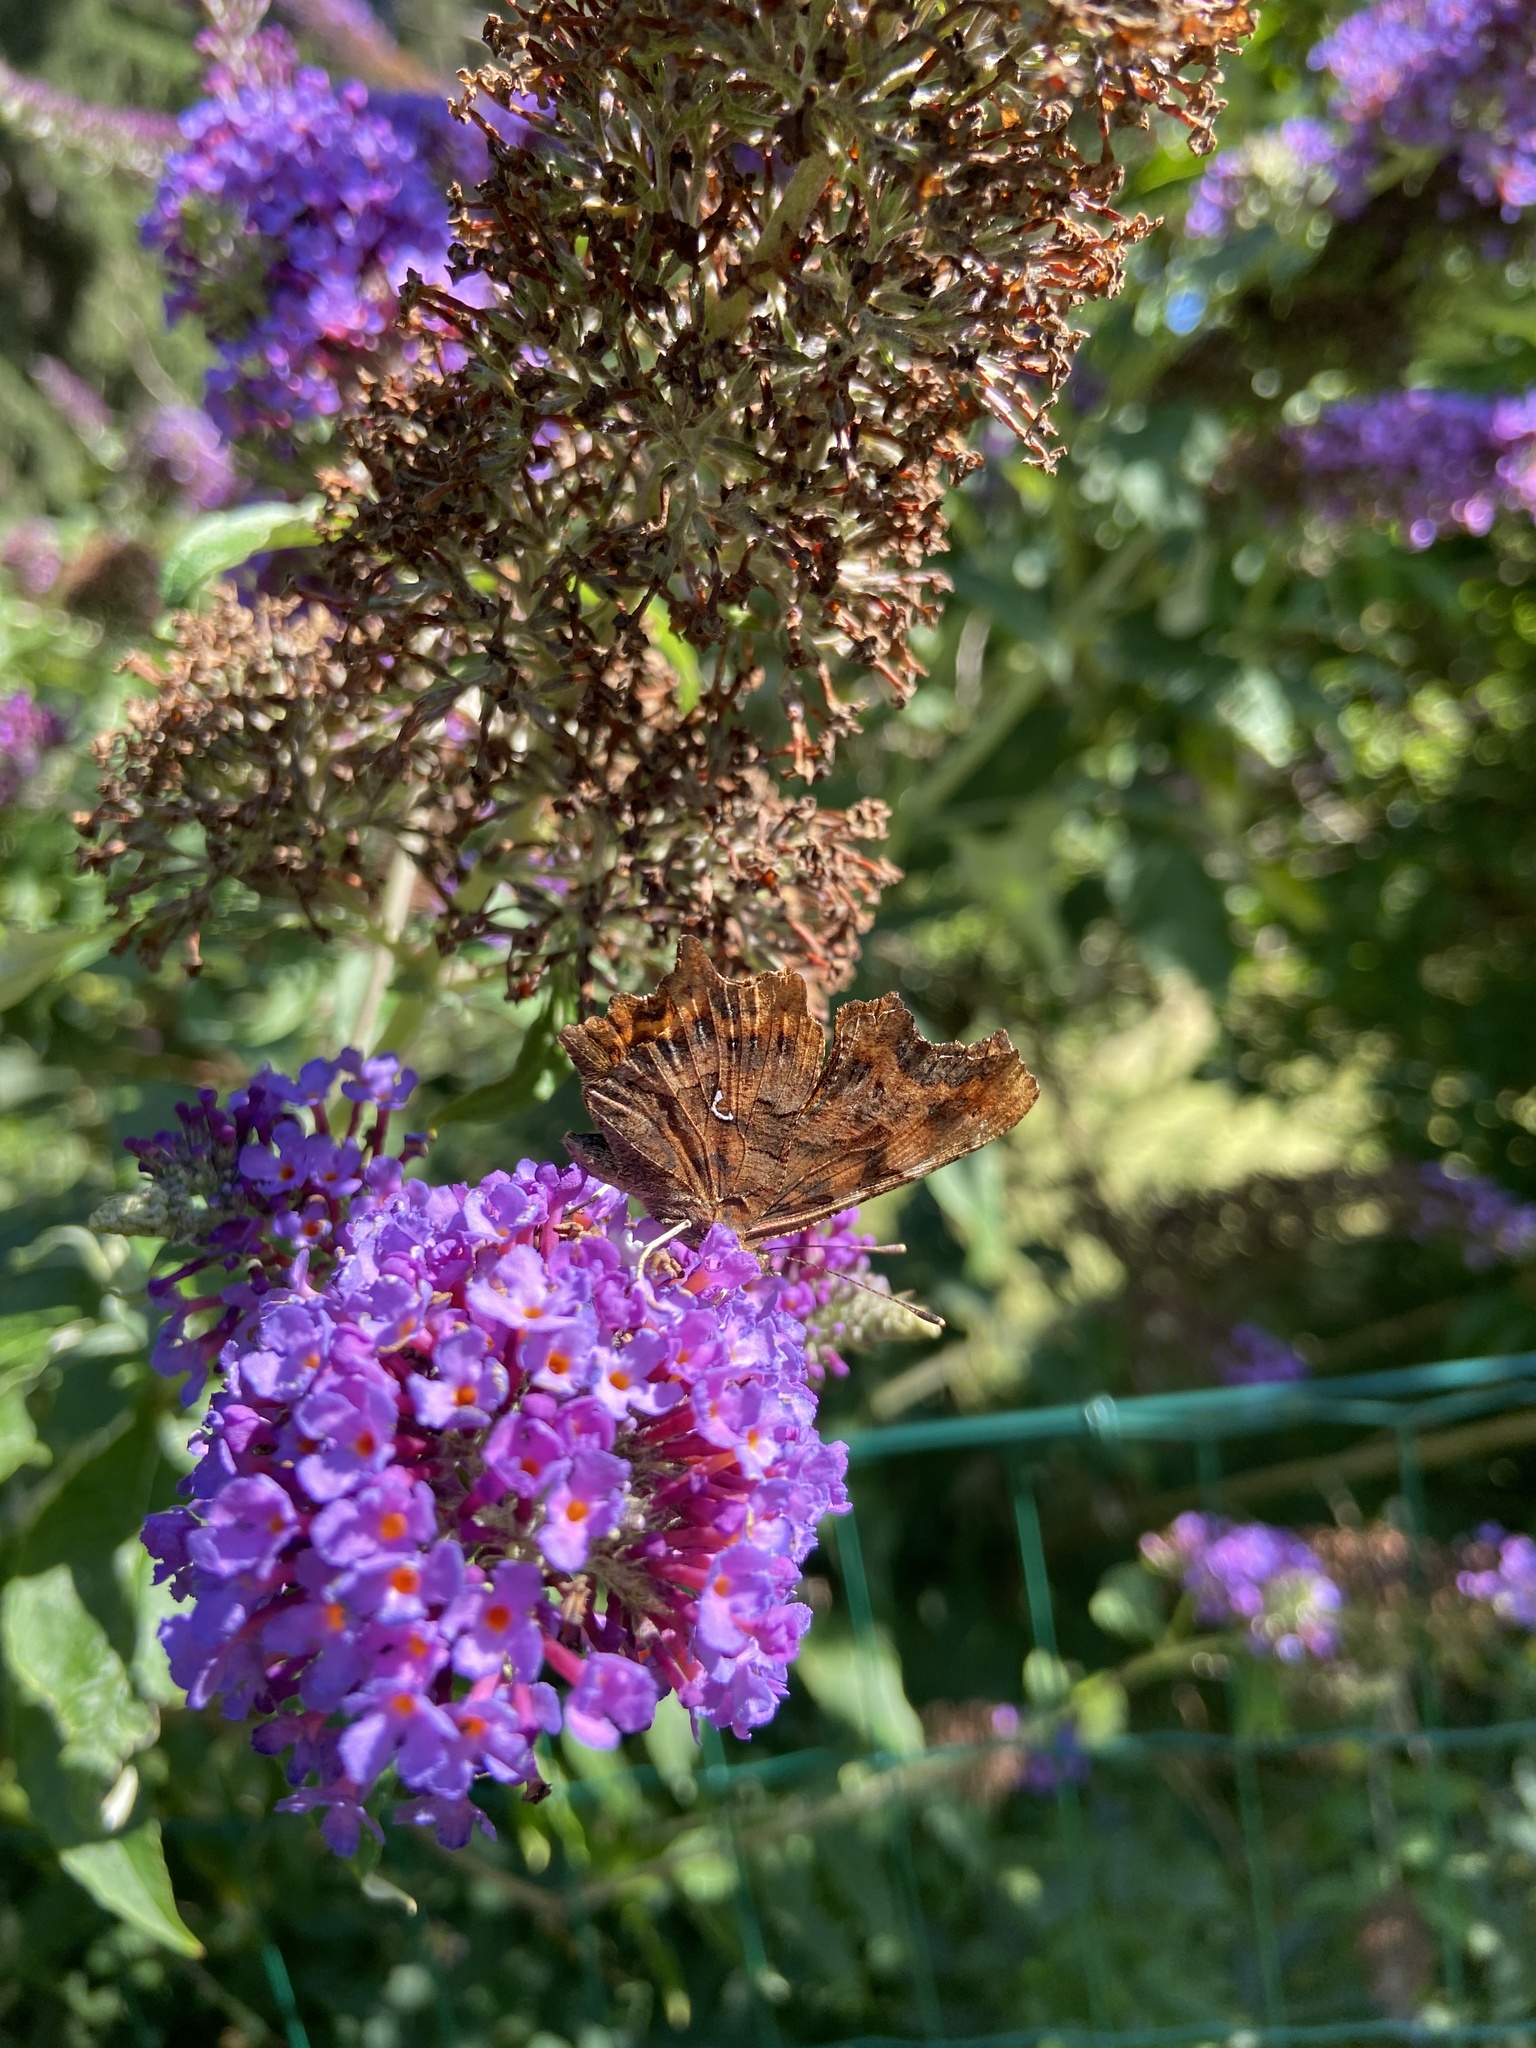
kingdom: Animalia
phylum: Arthropoda
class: Insecta
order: Lepidoptera
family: Nymphalidae
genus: Polygonia
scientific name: Polygonia c-album
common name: Comma
